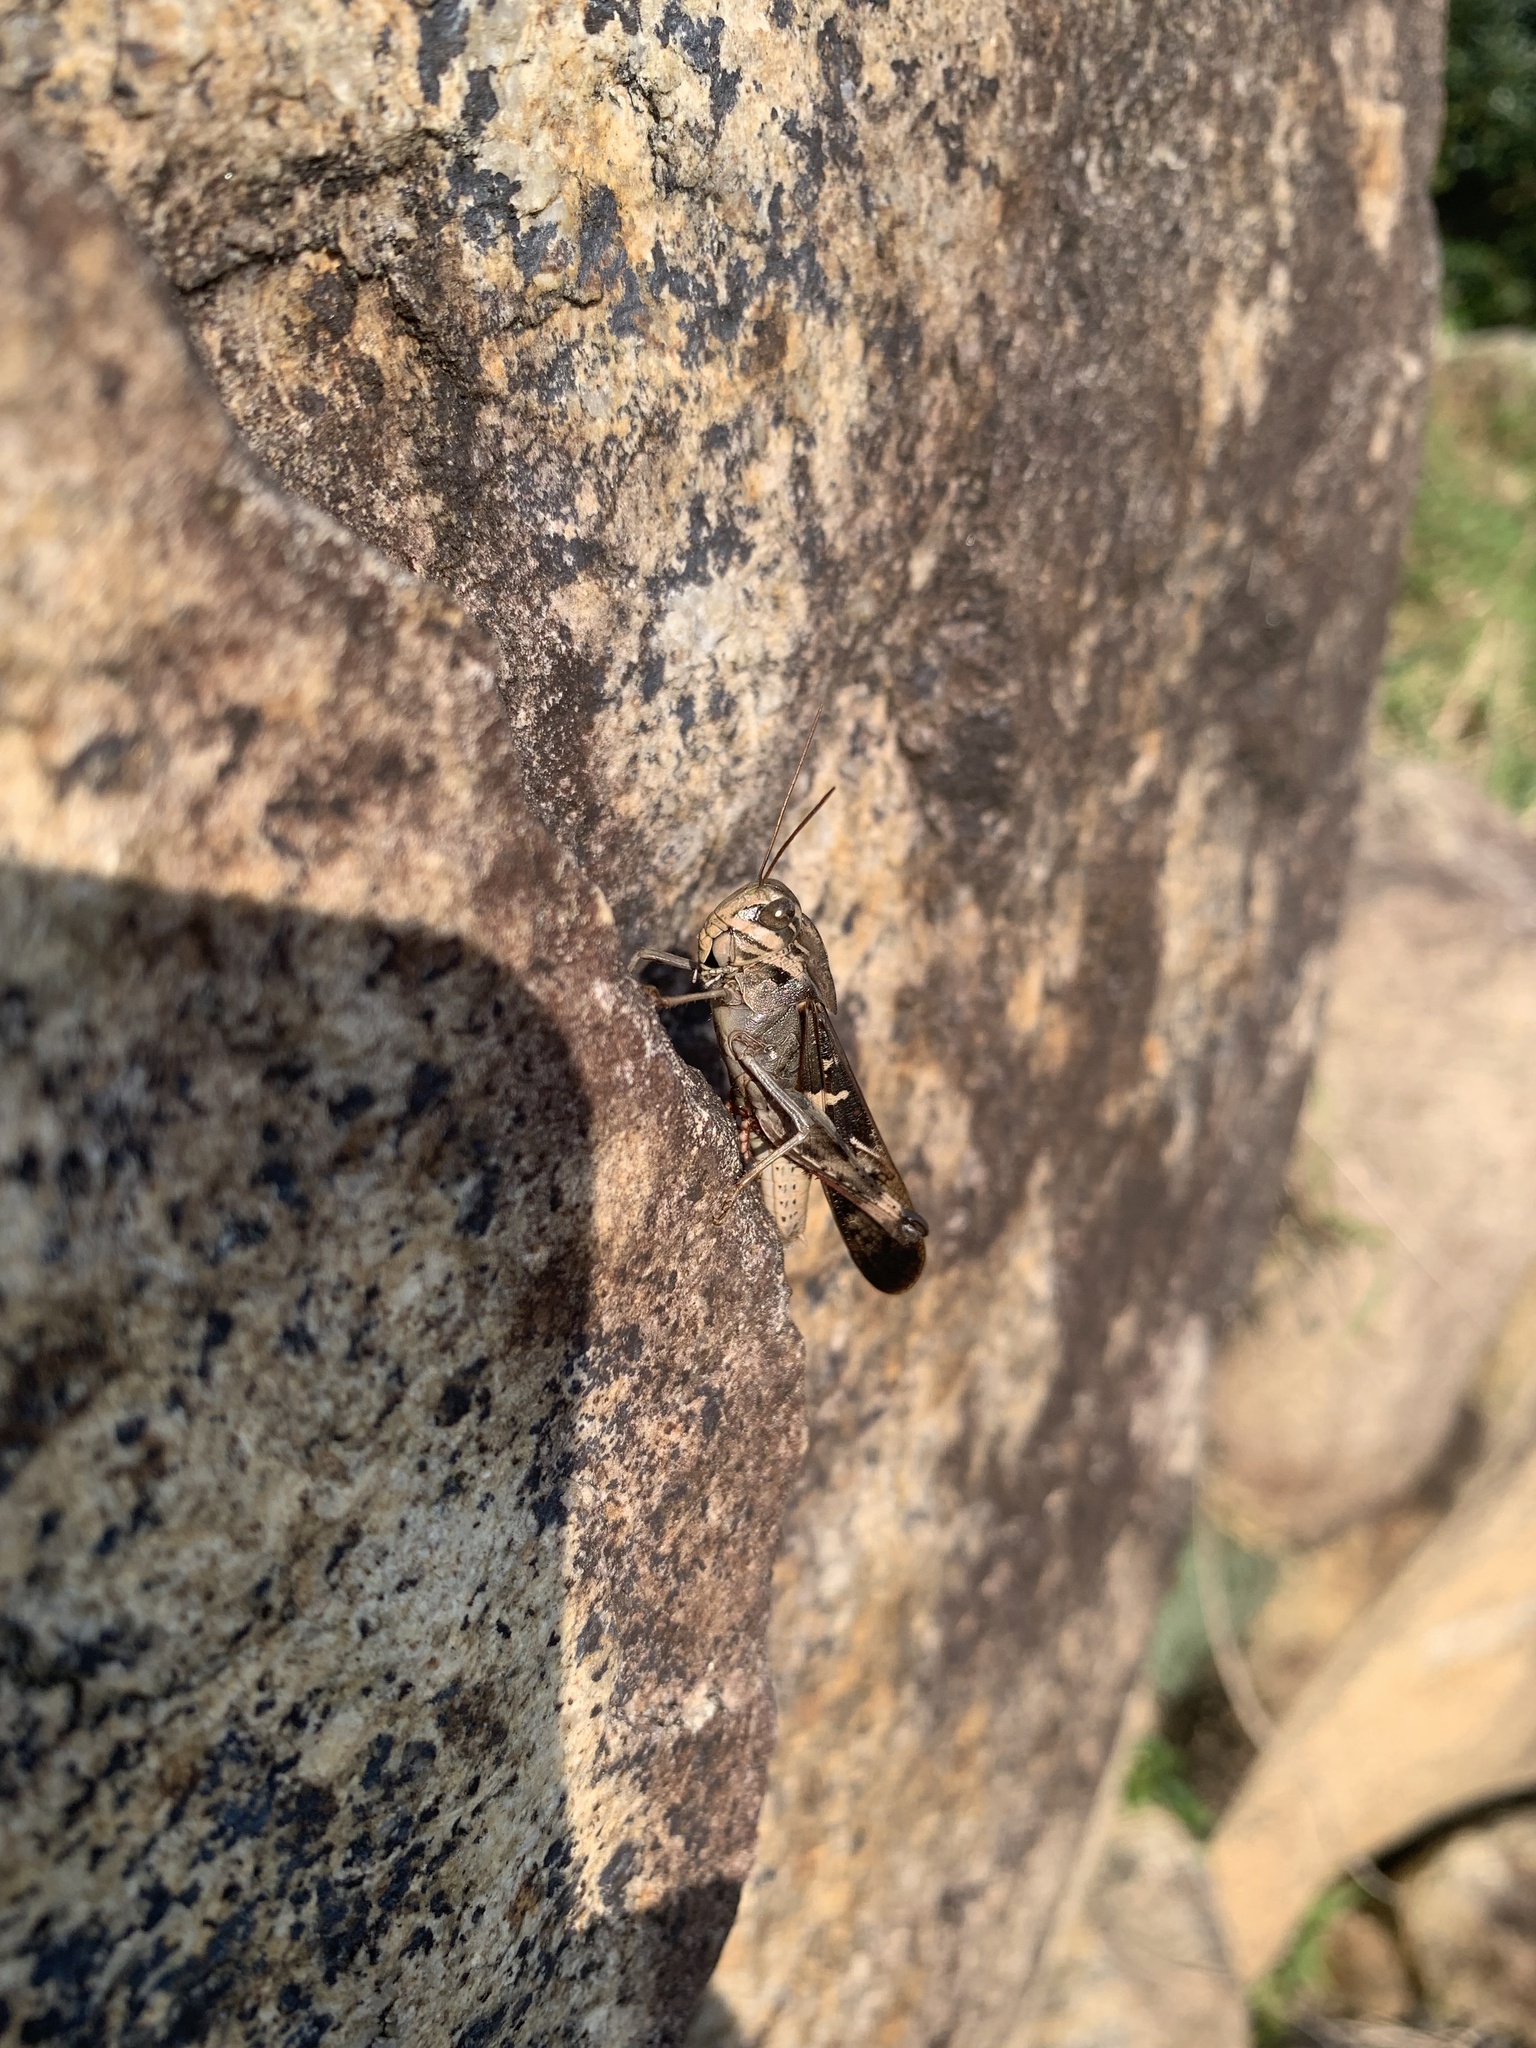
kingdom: Animalia
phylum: Arthropoda
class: Insecta
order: Orthoptera
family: Acrididae
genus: Gastrimargus
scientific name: Gastrimargus marmoratus
